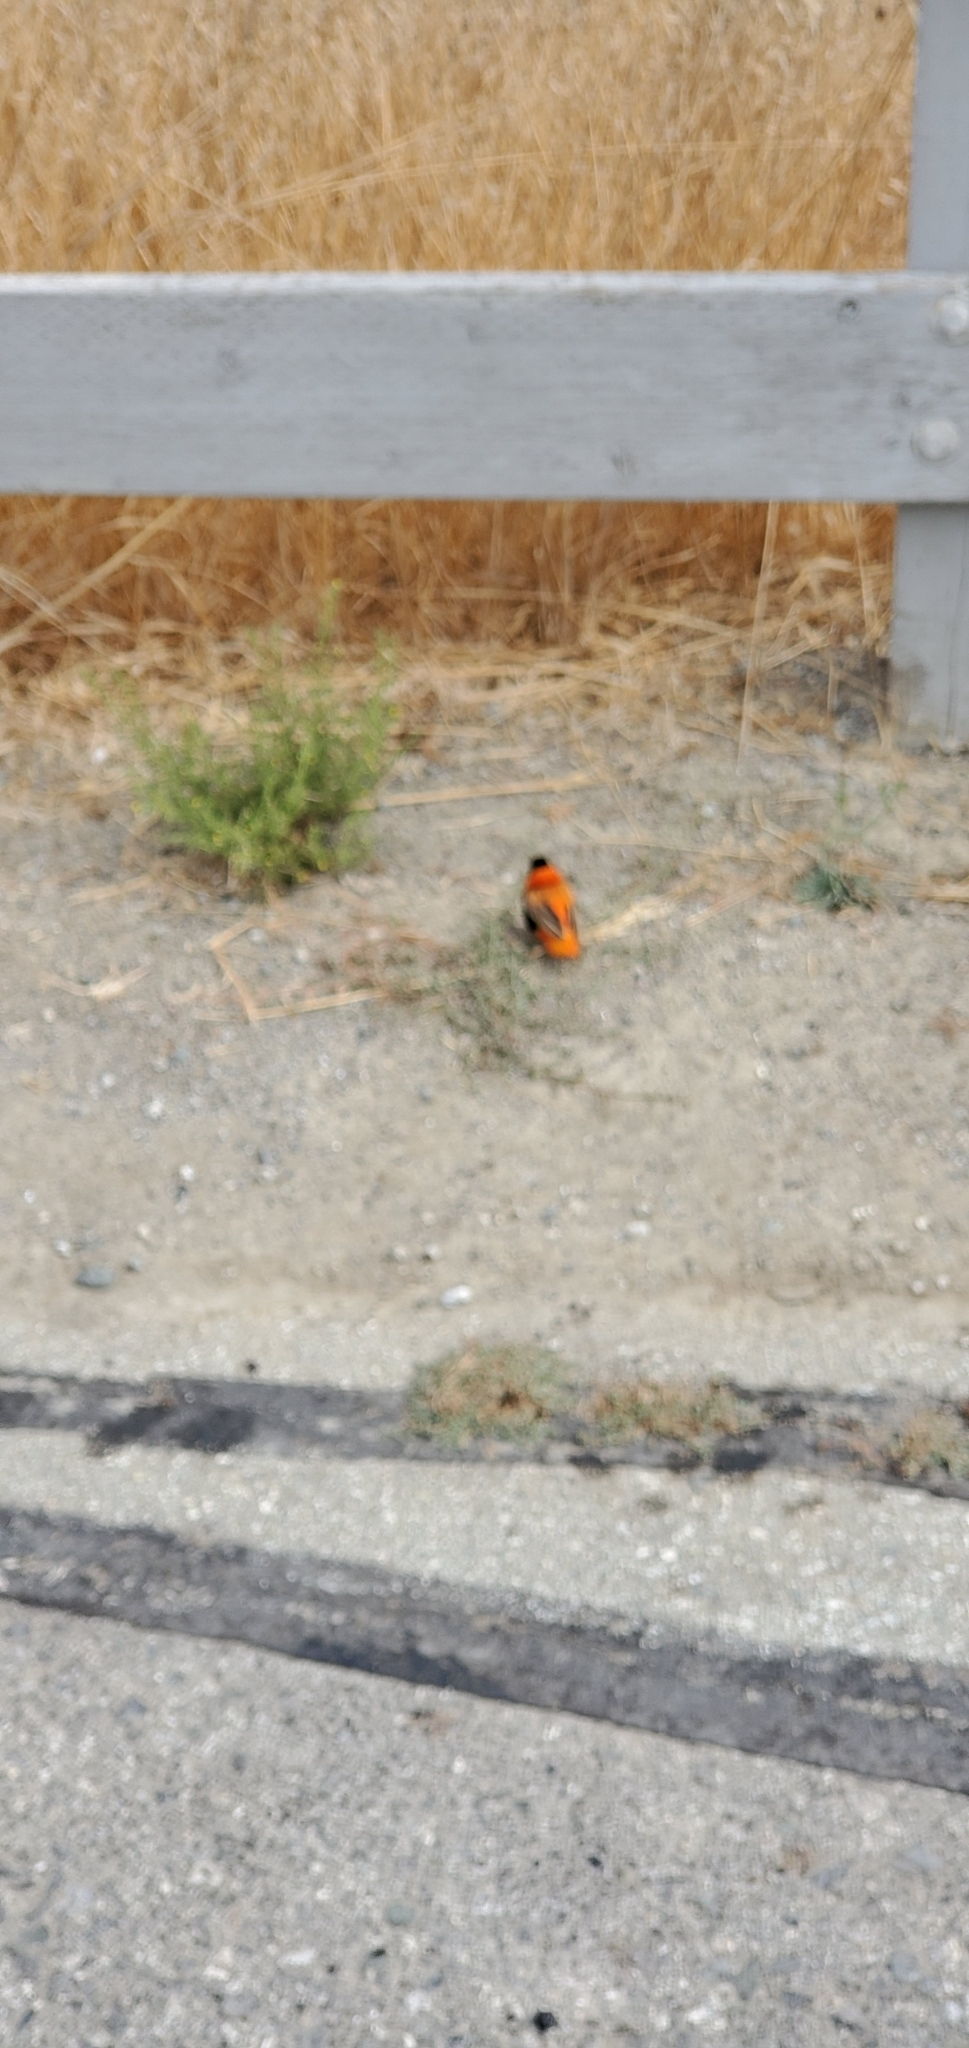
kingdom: Animalia
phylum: Chordata
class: Aves
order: Passeriformes
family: Ploceidae
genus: Euplectes
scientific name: Euplectes franciscanus
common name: Northern red bishop
